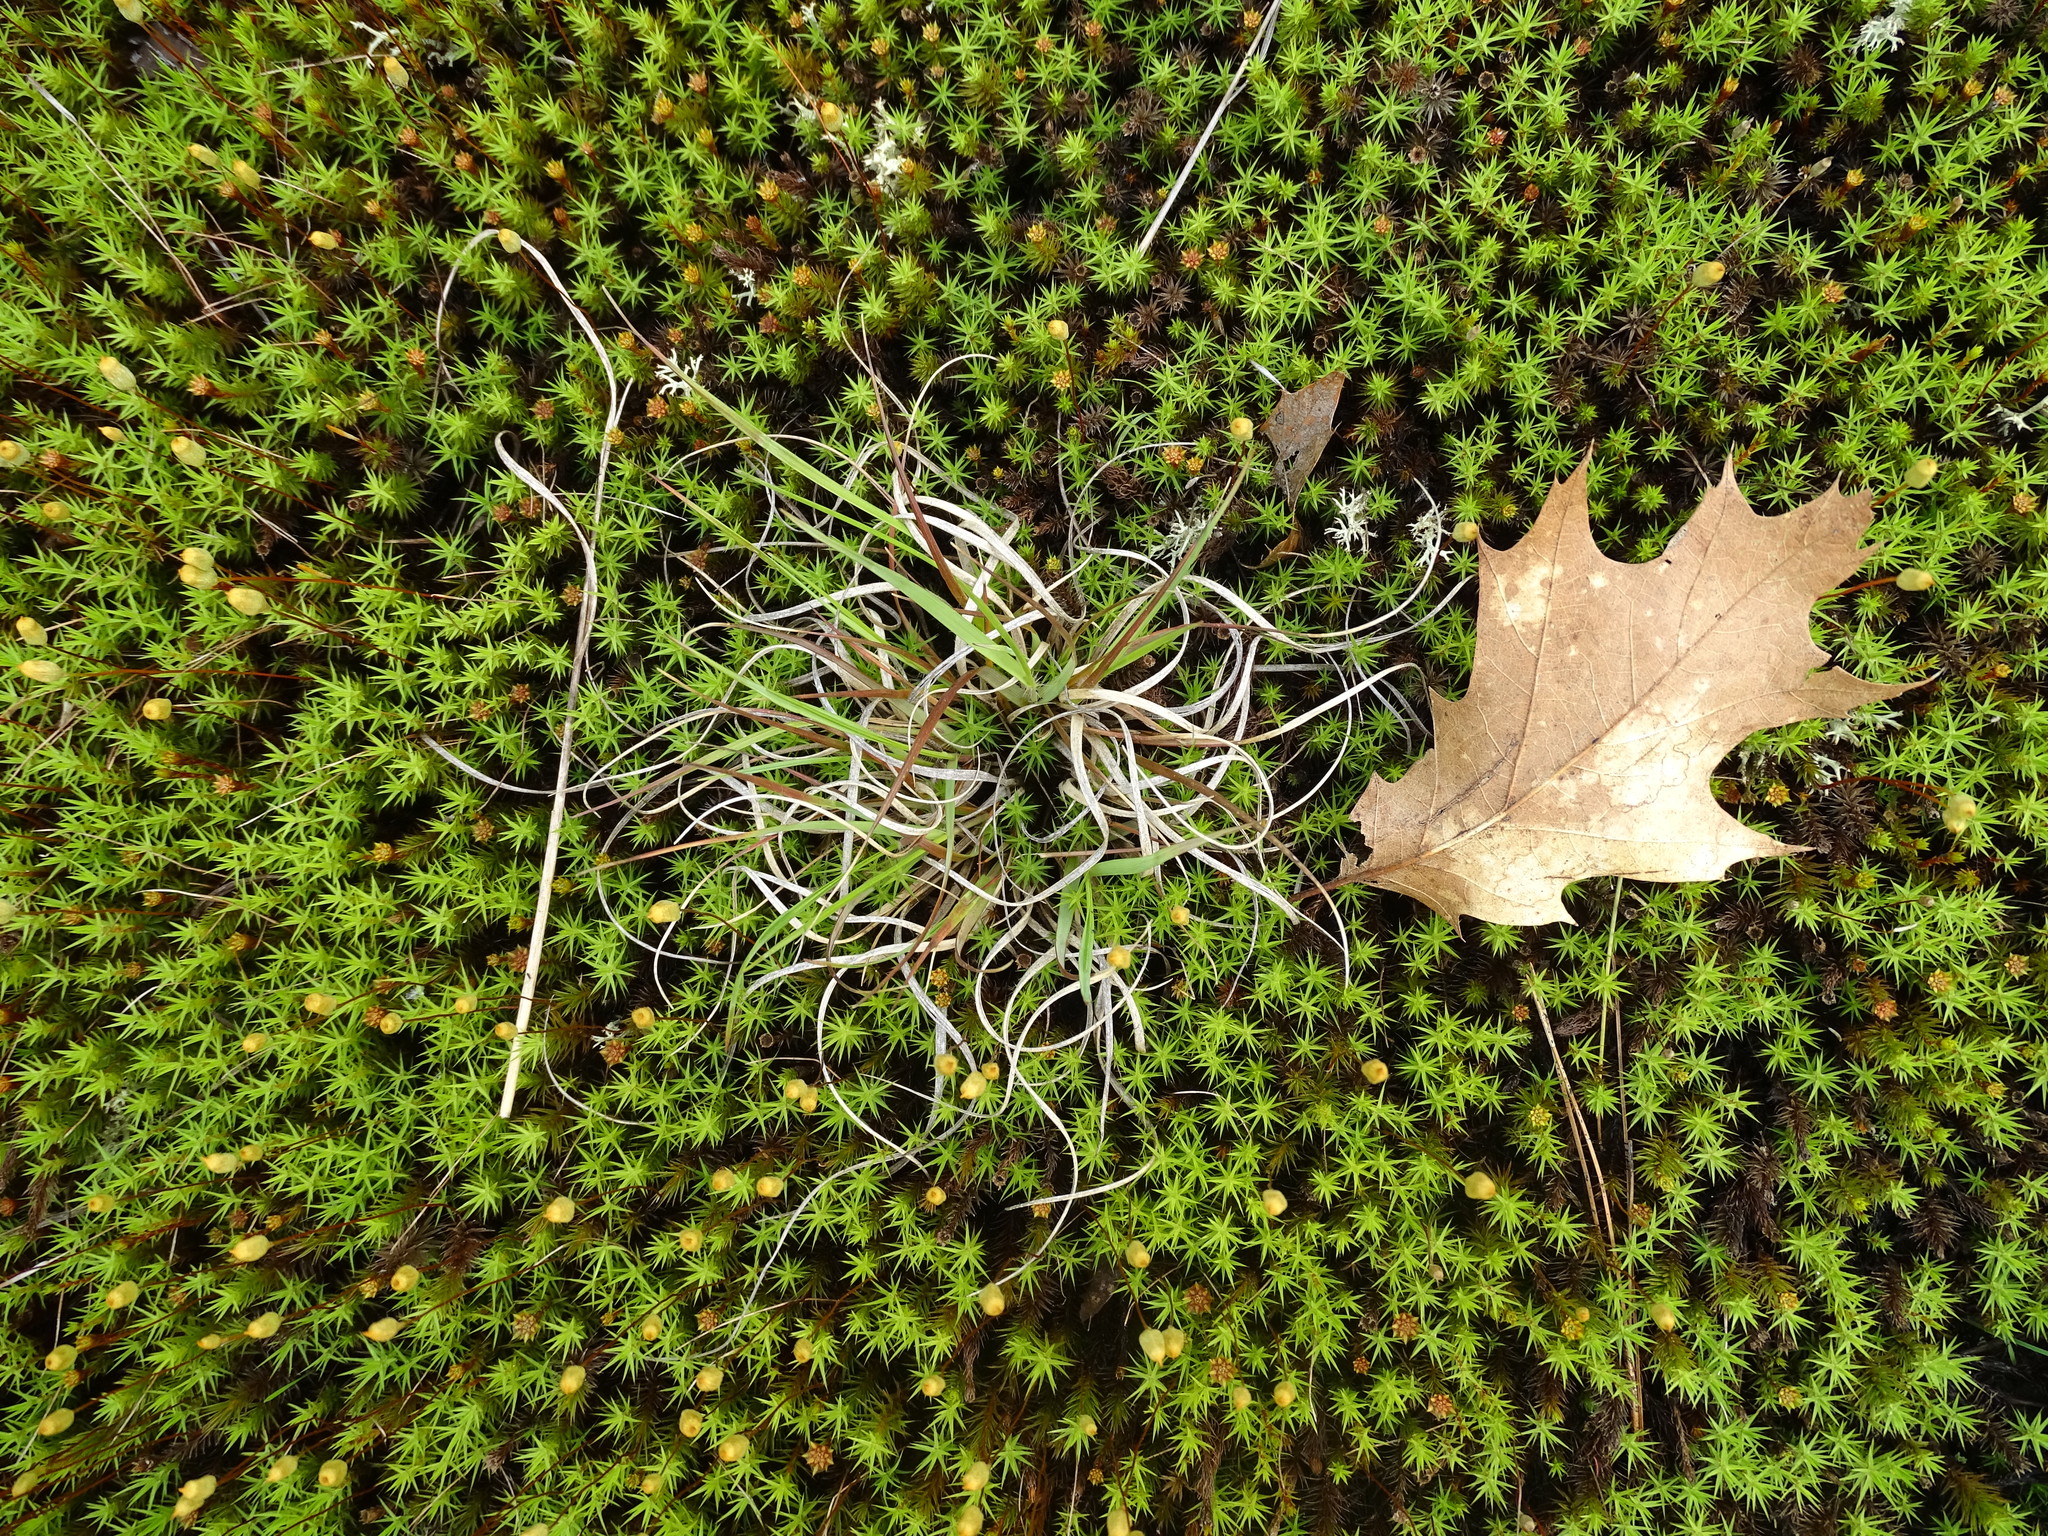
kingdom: Plantae
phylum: Tracheophyta
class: Liliopsida
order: Poales
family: Poaceae
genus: Danthonia
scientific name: Danthonia spicata
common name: Common wild oatgrass
